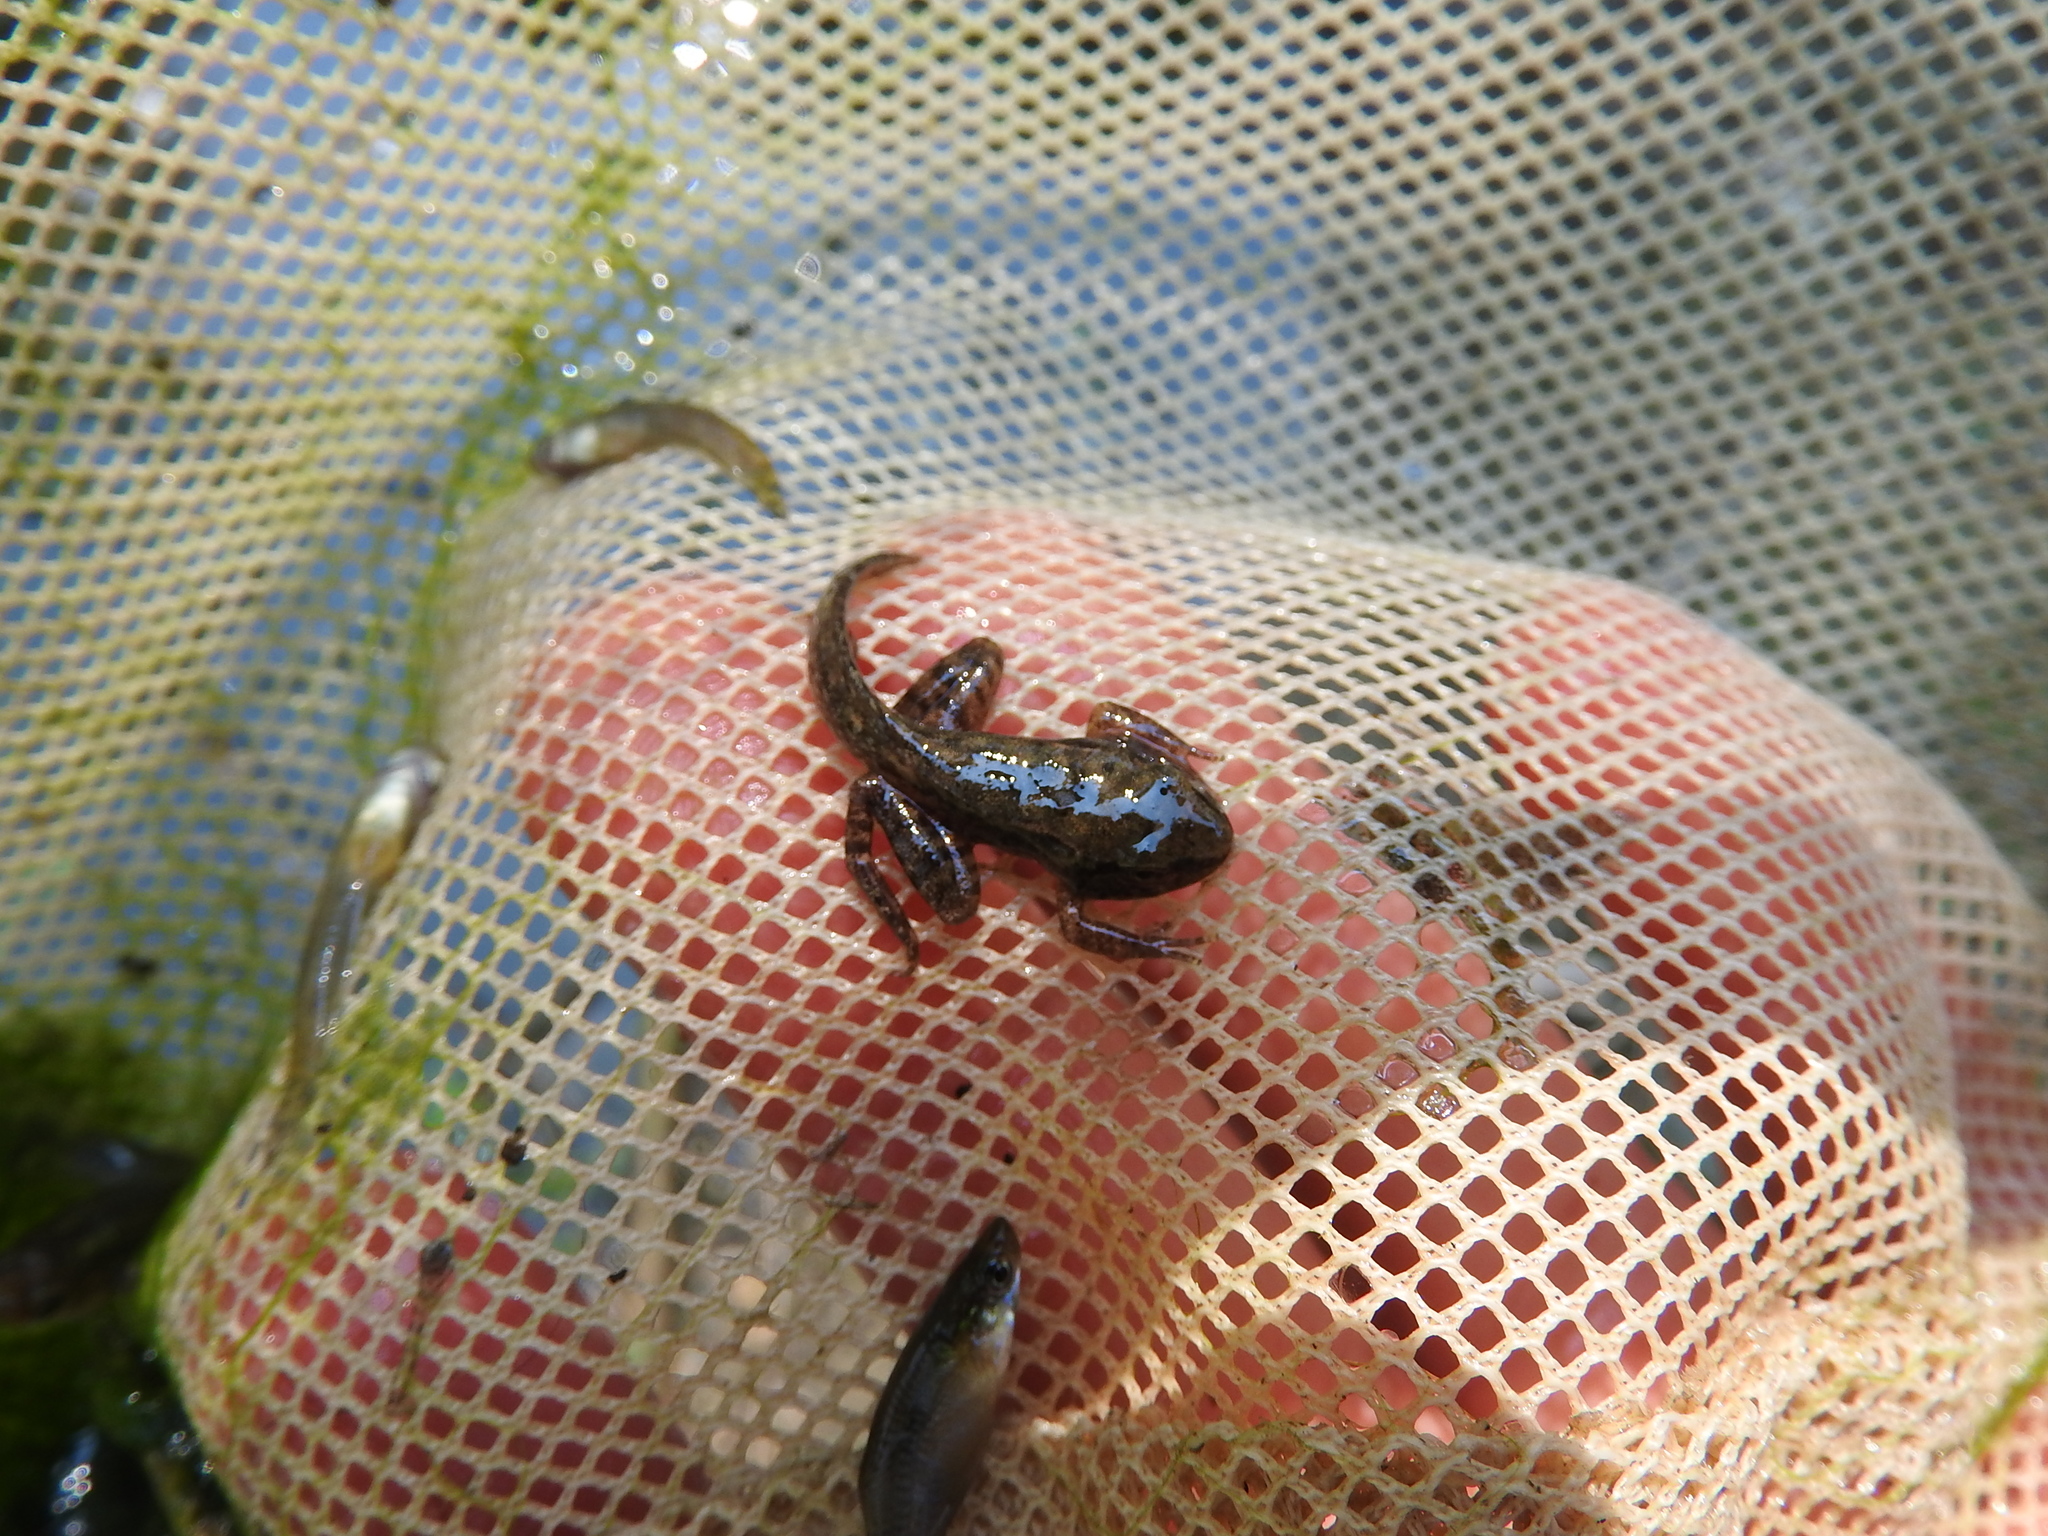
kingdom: Animalia
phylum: Chordata
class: Amphibia
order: Anura
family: Ranidae
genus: Rana
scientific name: Rana latastei
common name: Italian agile frog
